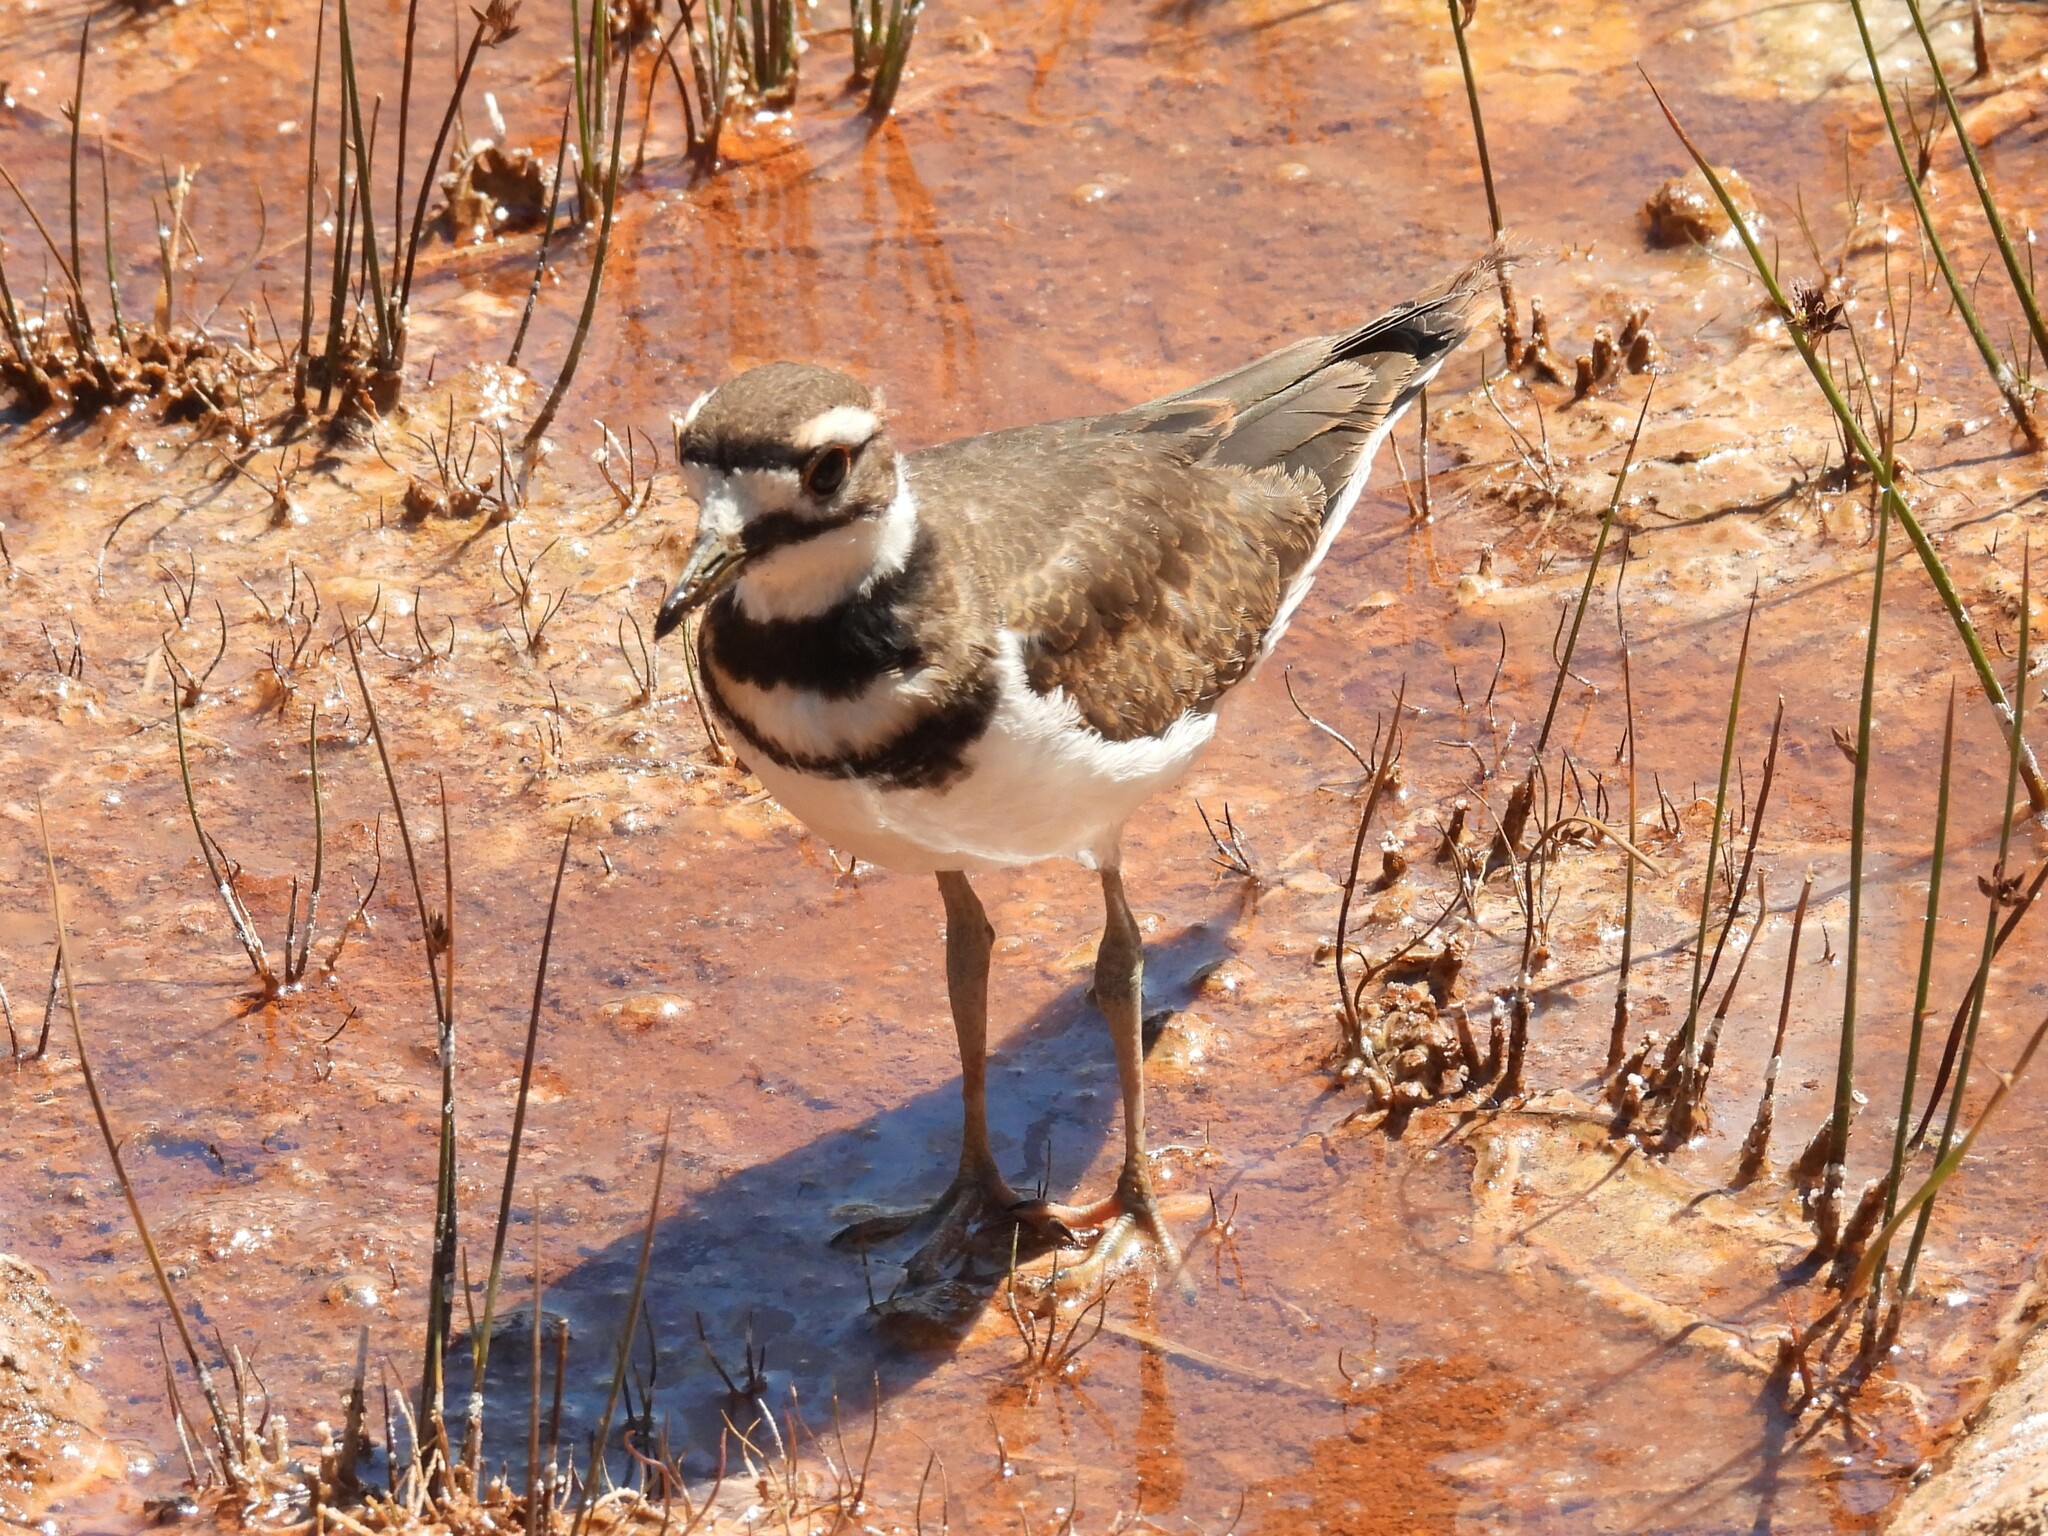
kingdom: Animalia
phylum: Chordata
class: Aves
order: Charadriiformes
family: Charadriidae
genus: Charadrius
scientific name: Charadrius vociferus
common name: Killdeer
